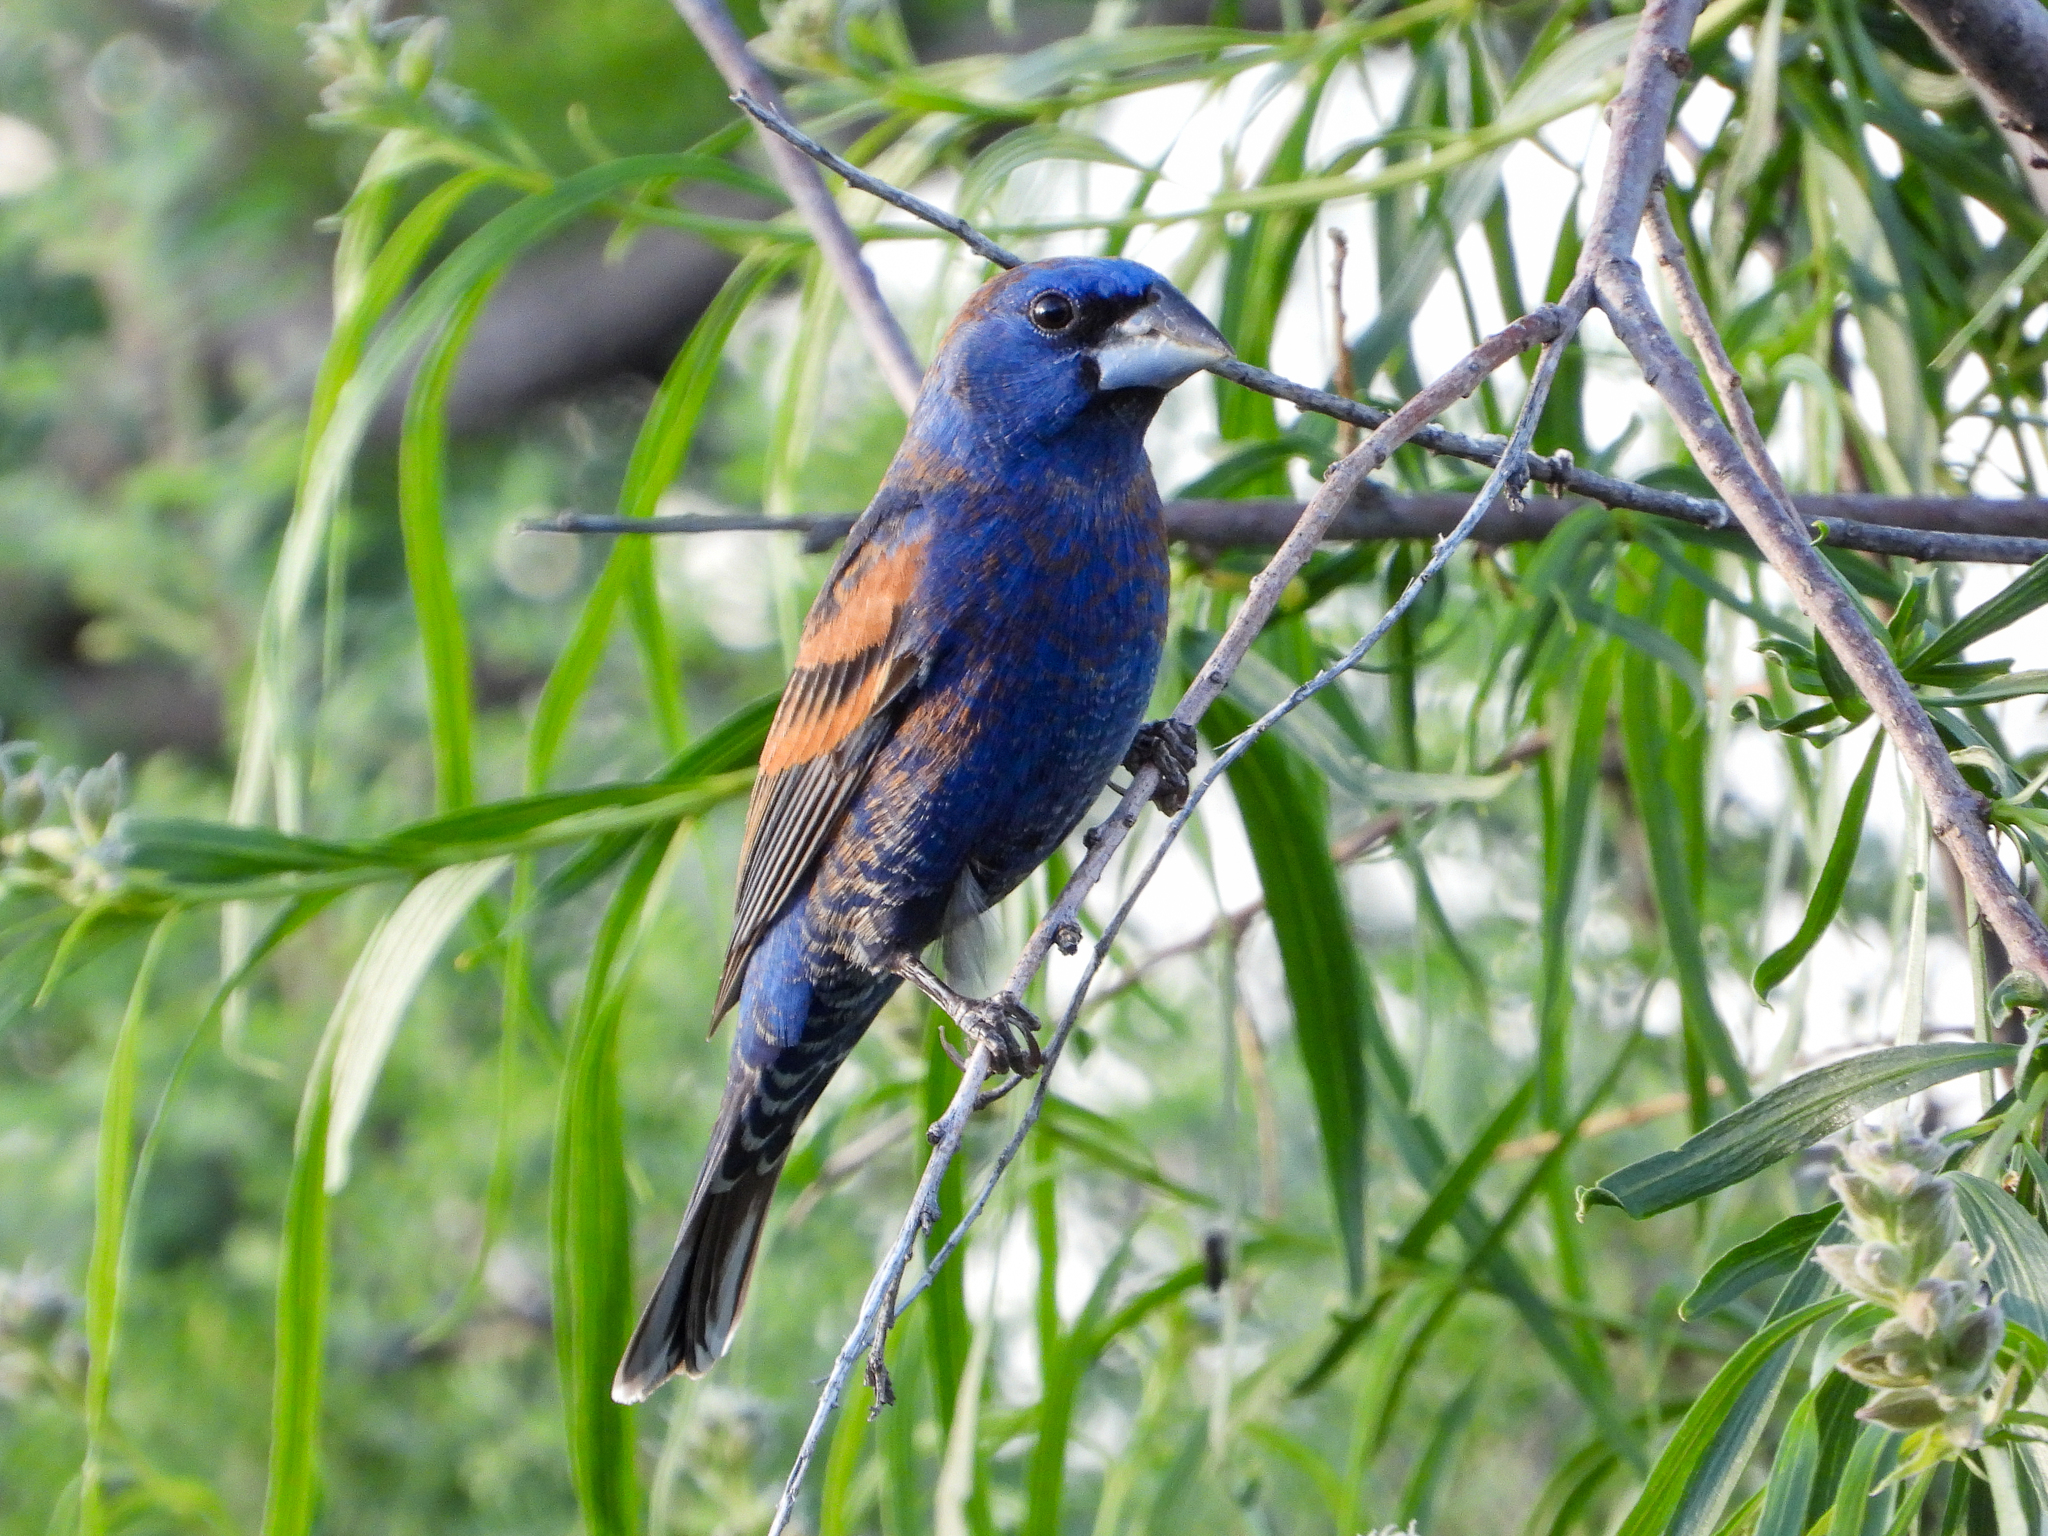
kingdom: Animalia
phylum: Chordata
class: Aves
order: Passeriformes
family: Cardinalidae
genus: Passerina
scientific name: Passerina caerulea
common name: Blue grosbeak
